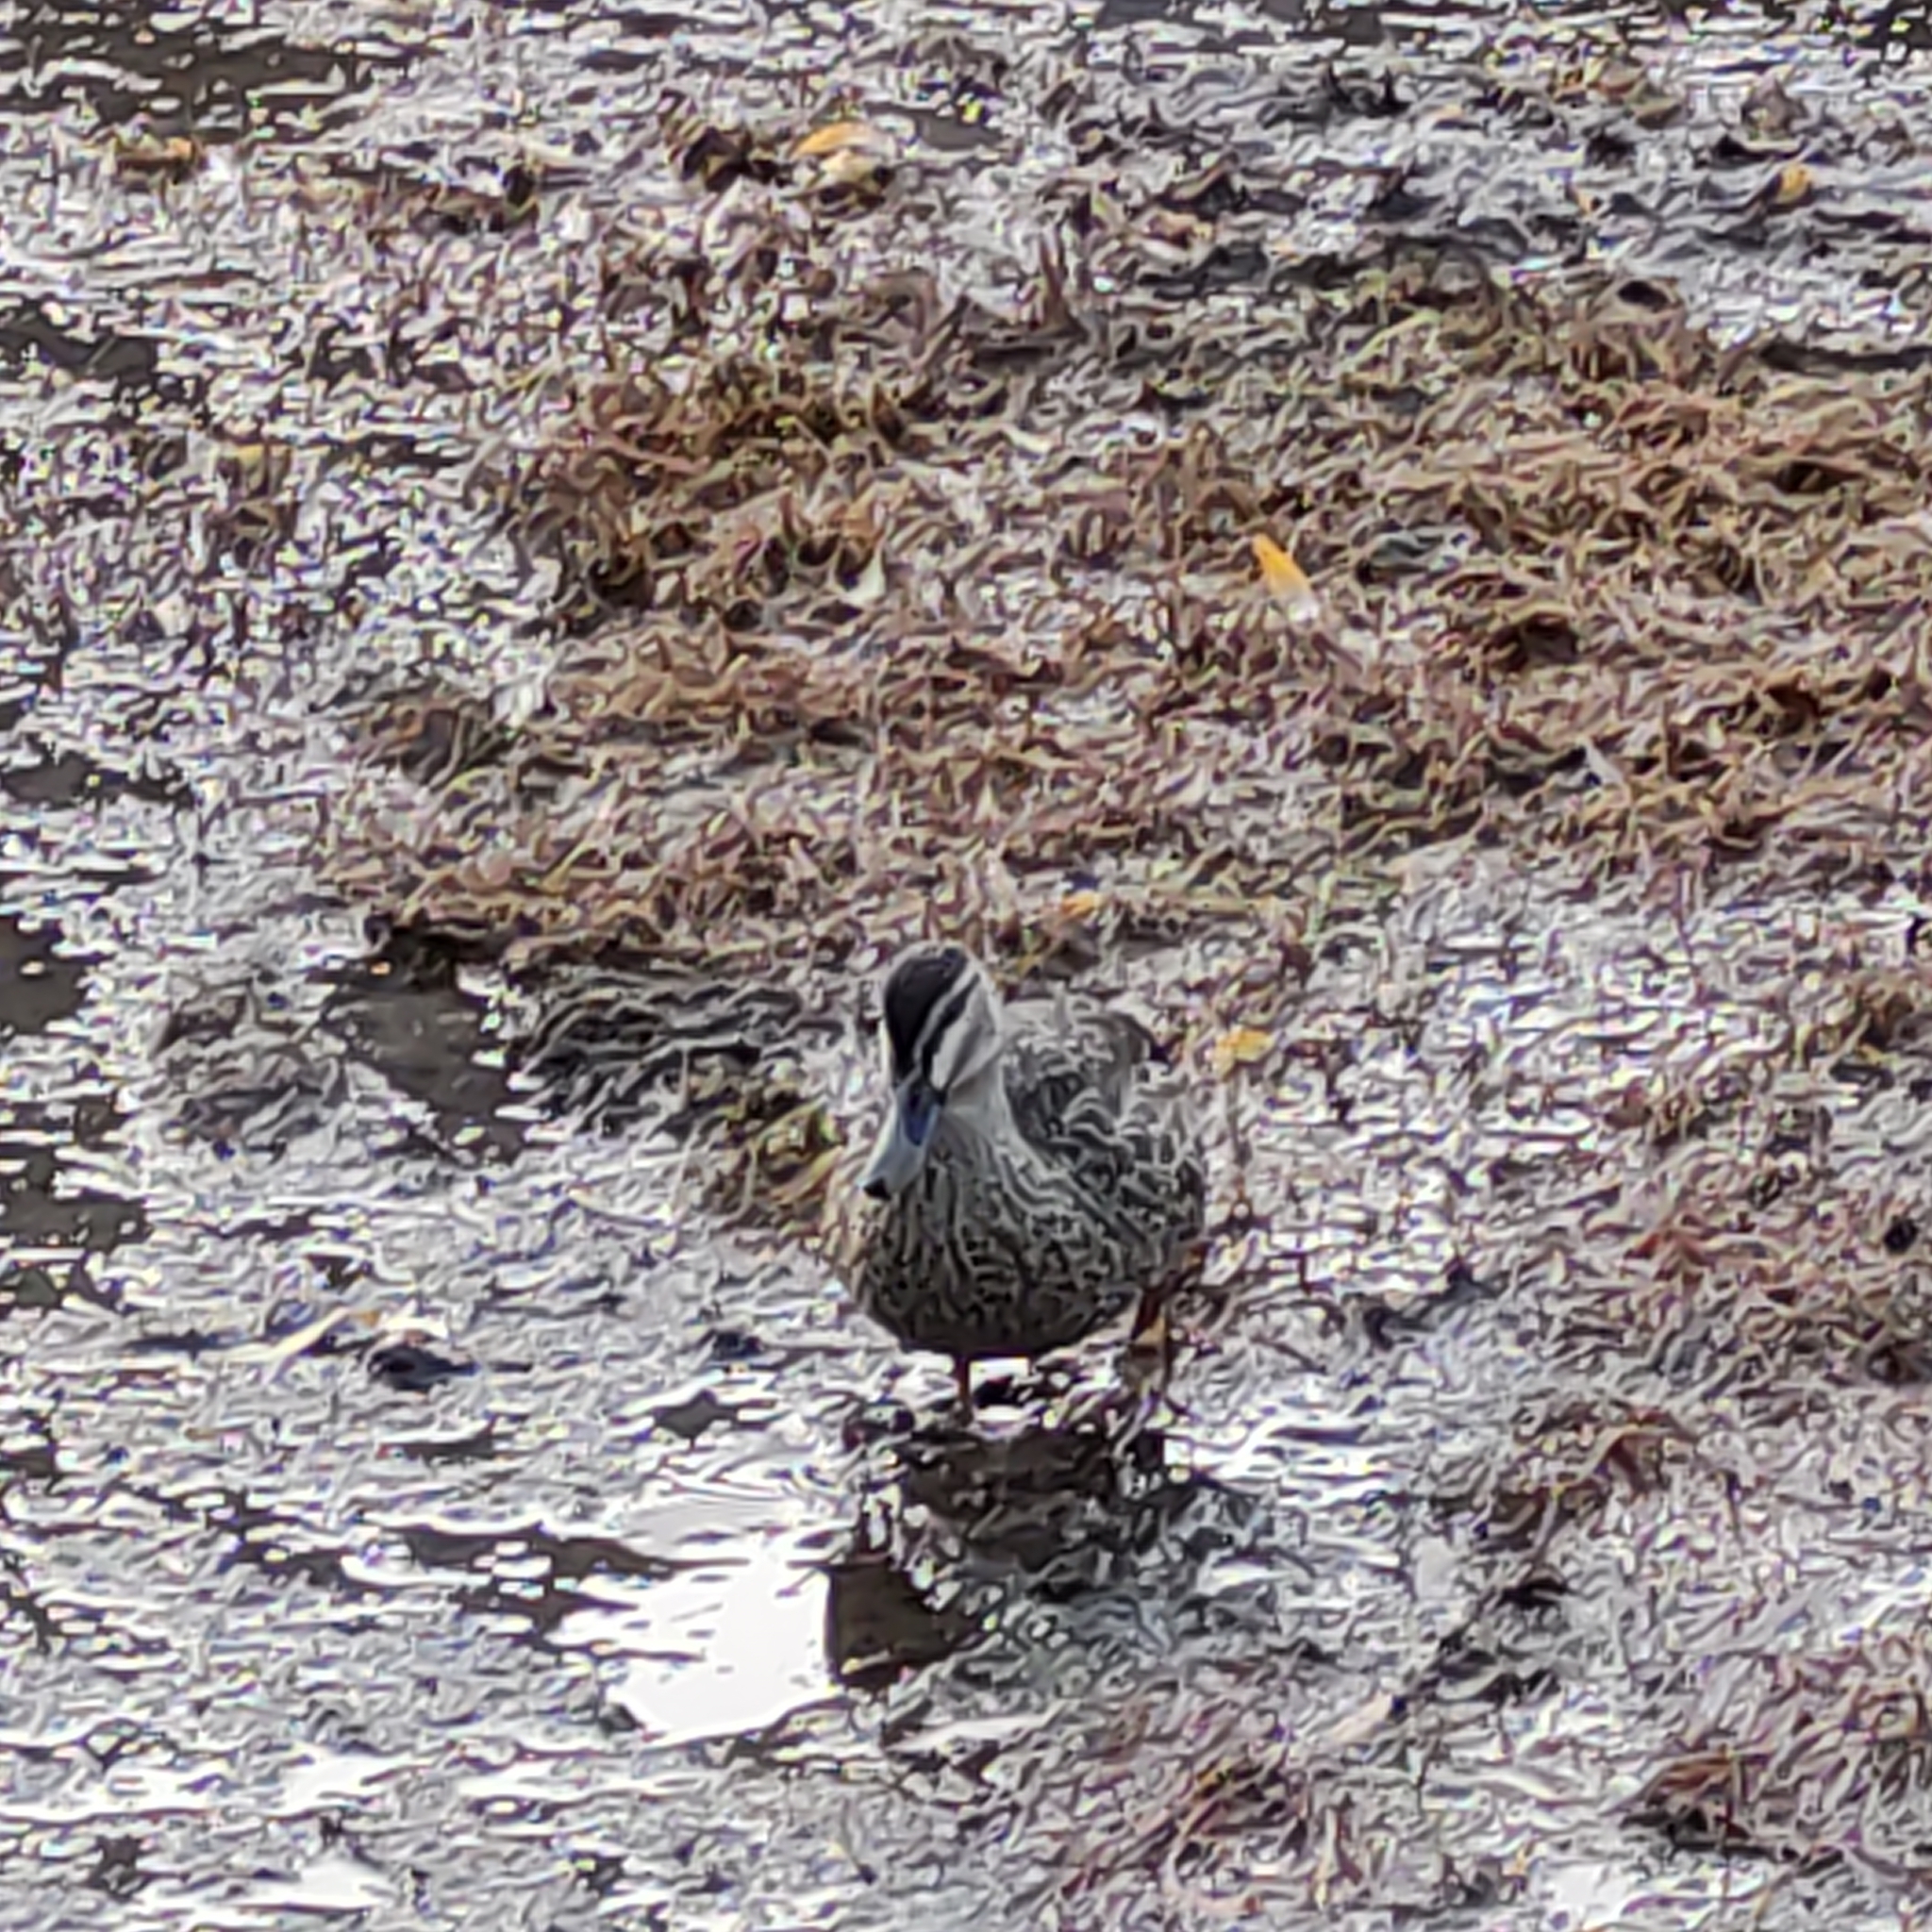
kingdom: Animalia
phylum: Chordata
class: Aves
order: Anseriformes
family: Anatidae
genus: Anas
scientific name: Anas
